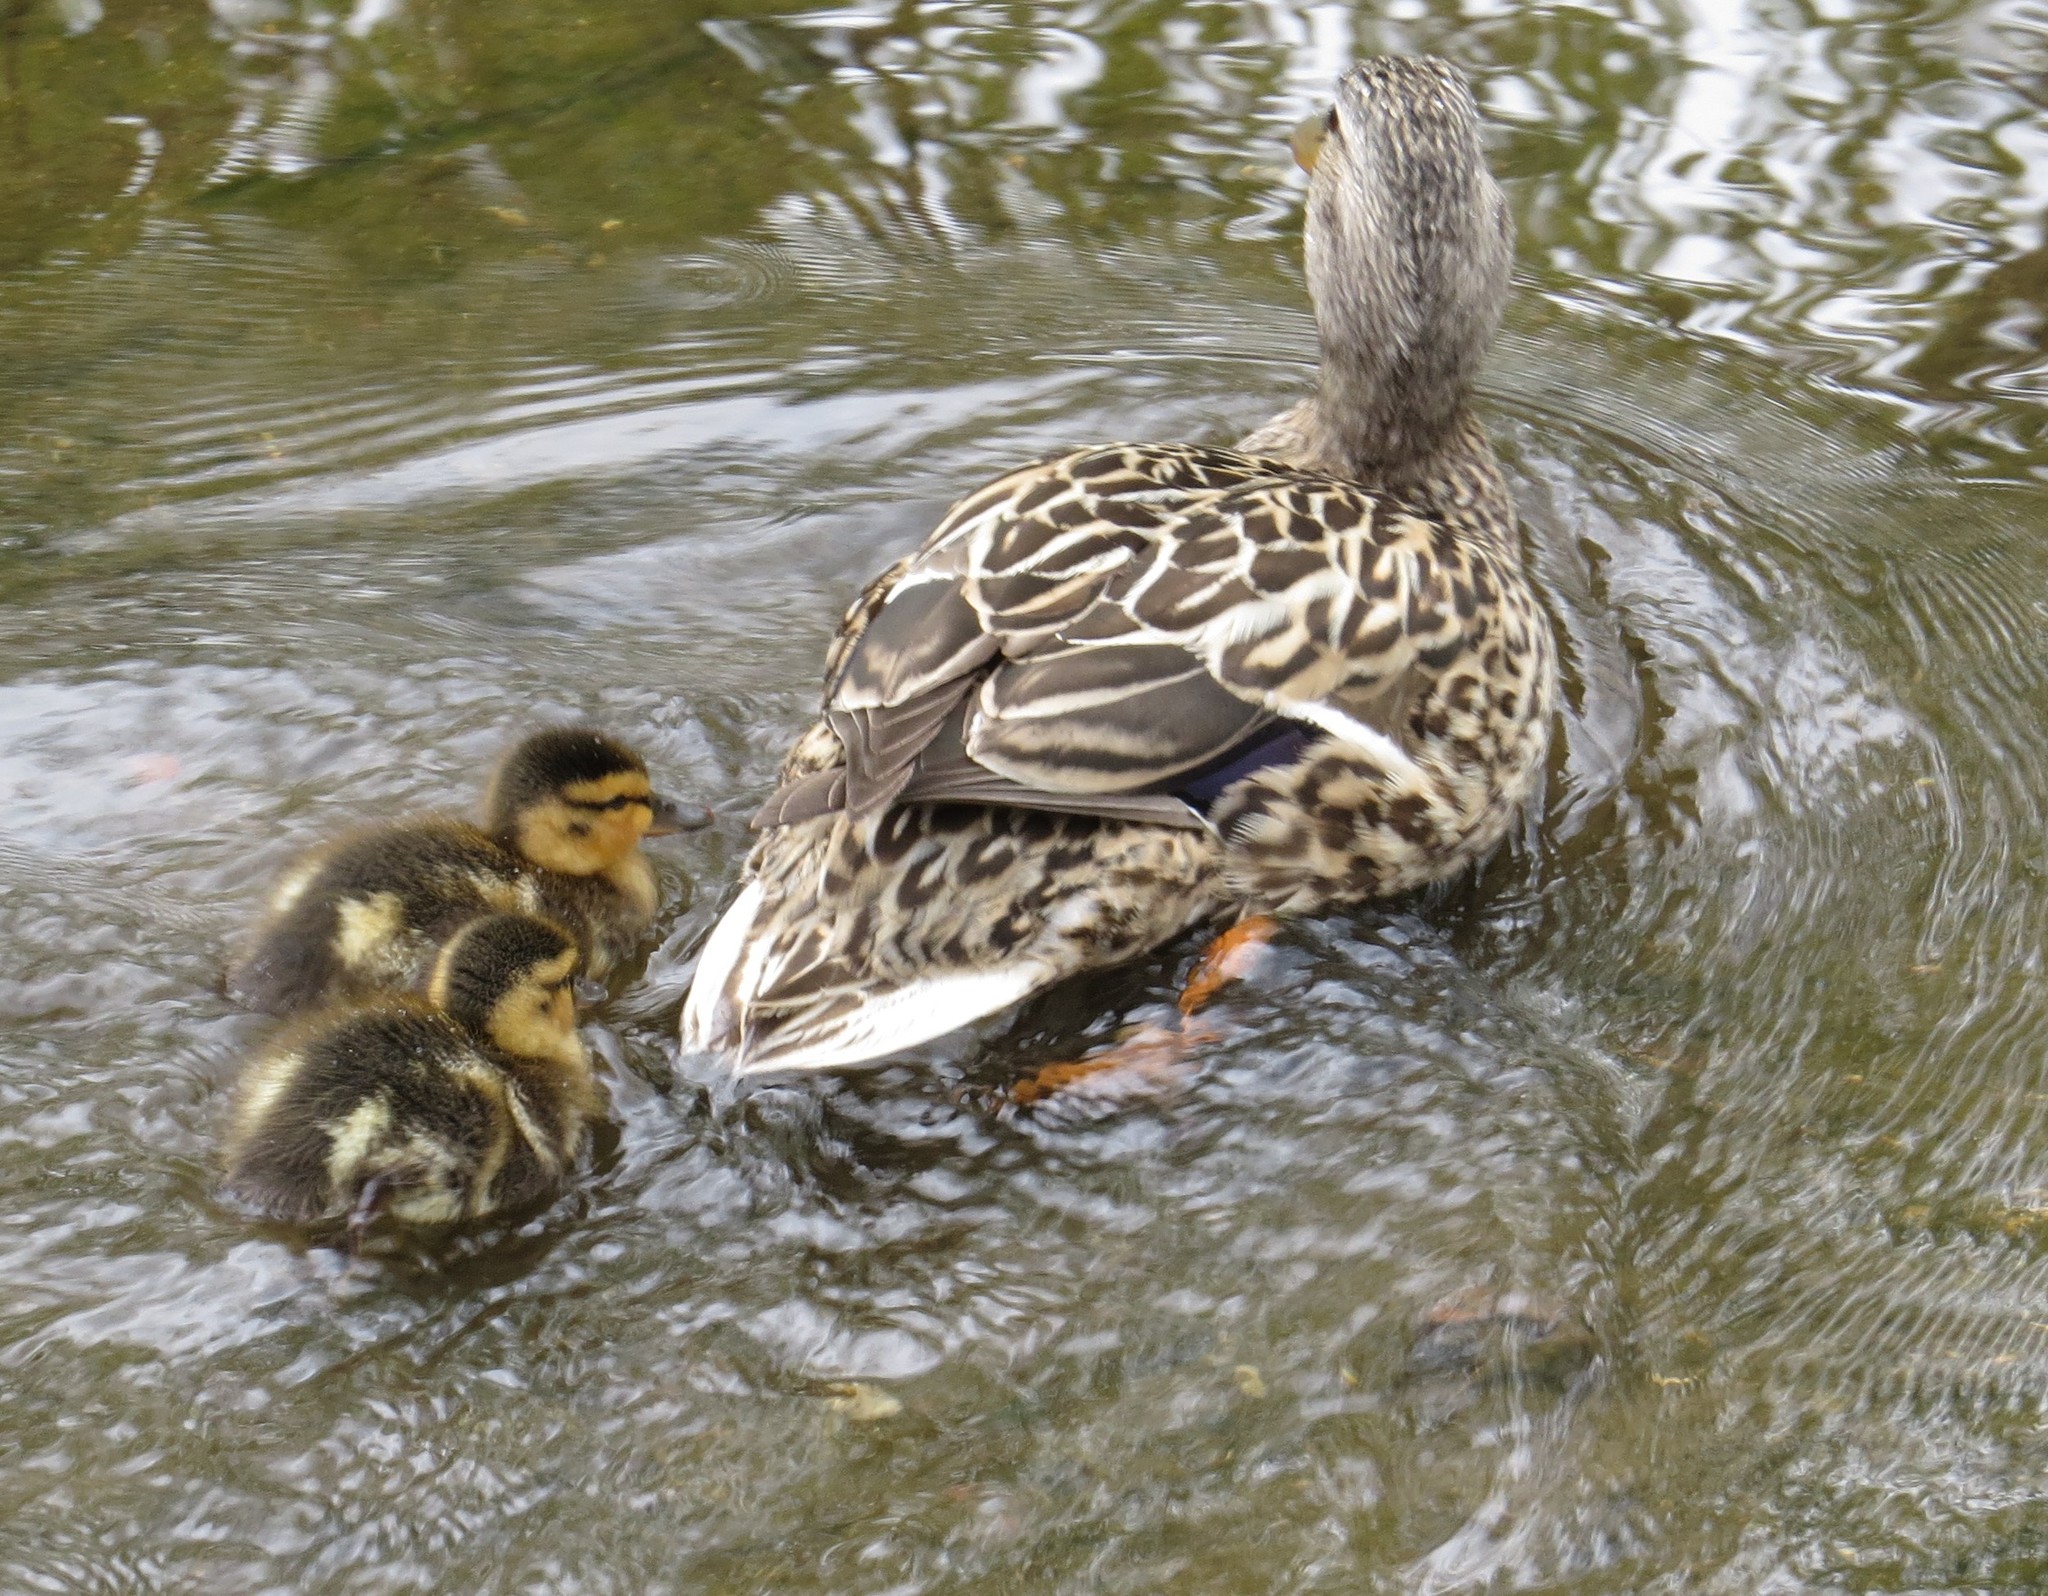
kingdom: Animalia
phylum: Chordata
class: Aves
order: Anseriformes
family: Anatidae
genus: Anas
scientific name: Anas platyrhynchos
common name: Mallard
